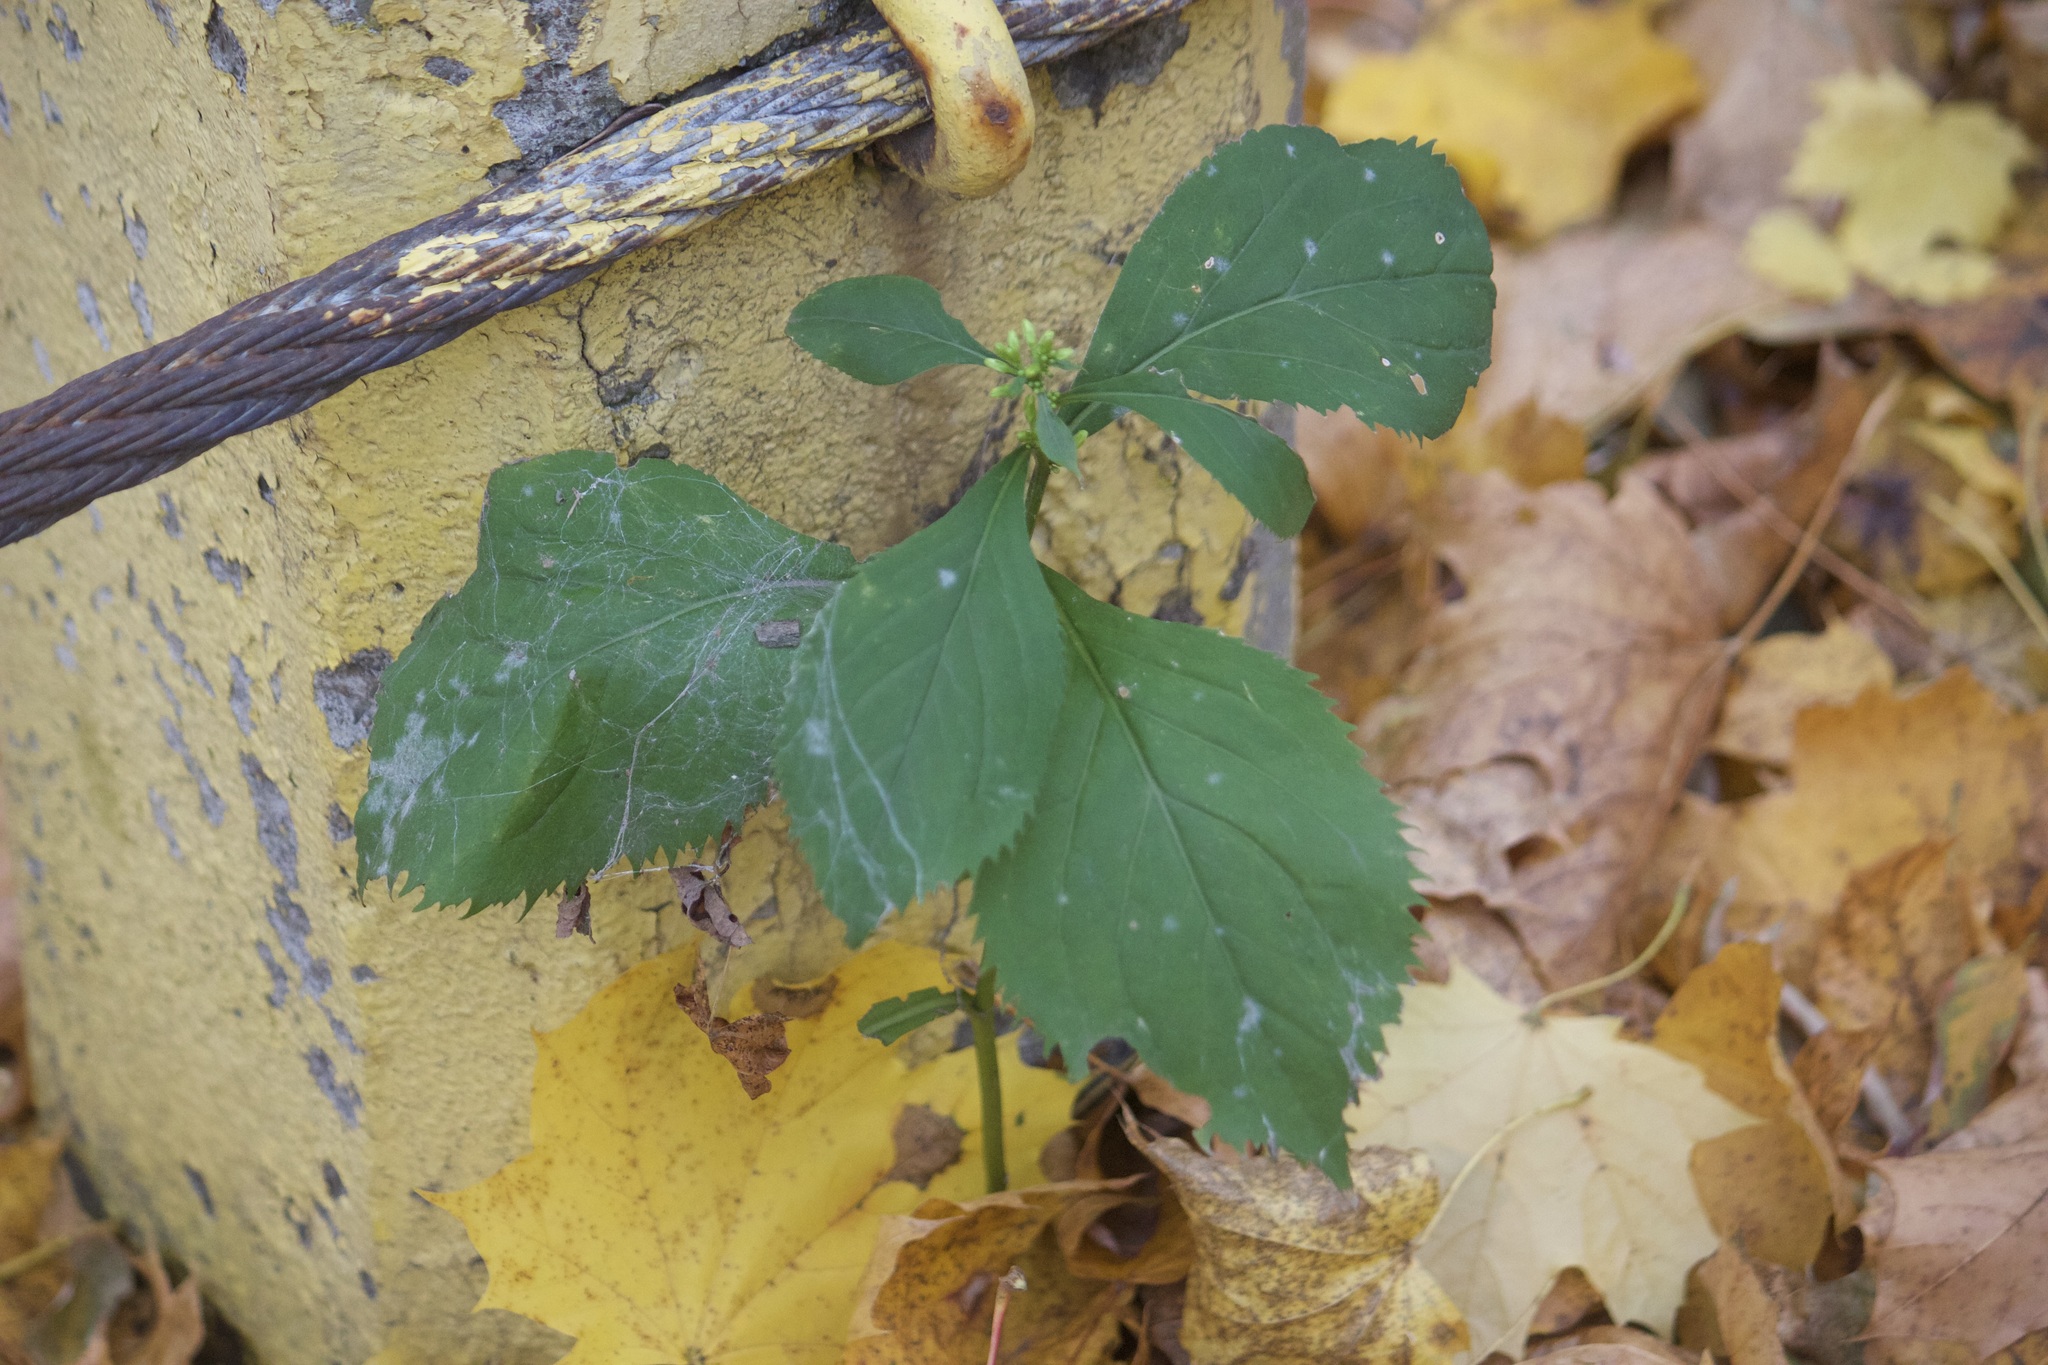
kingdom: Plantae
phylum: Tracheophyta
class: Magnoliopsida
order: Asterales
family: Asteraceae
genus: Solidago
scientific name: Solidago flexicaulis
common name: Zig-zag goldenrod
